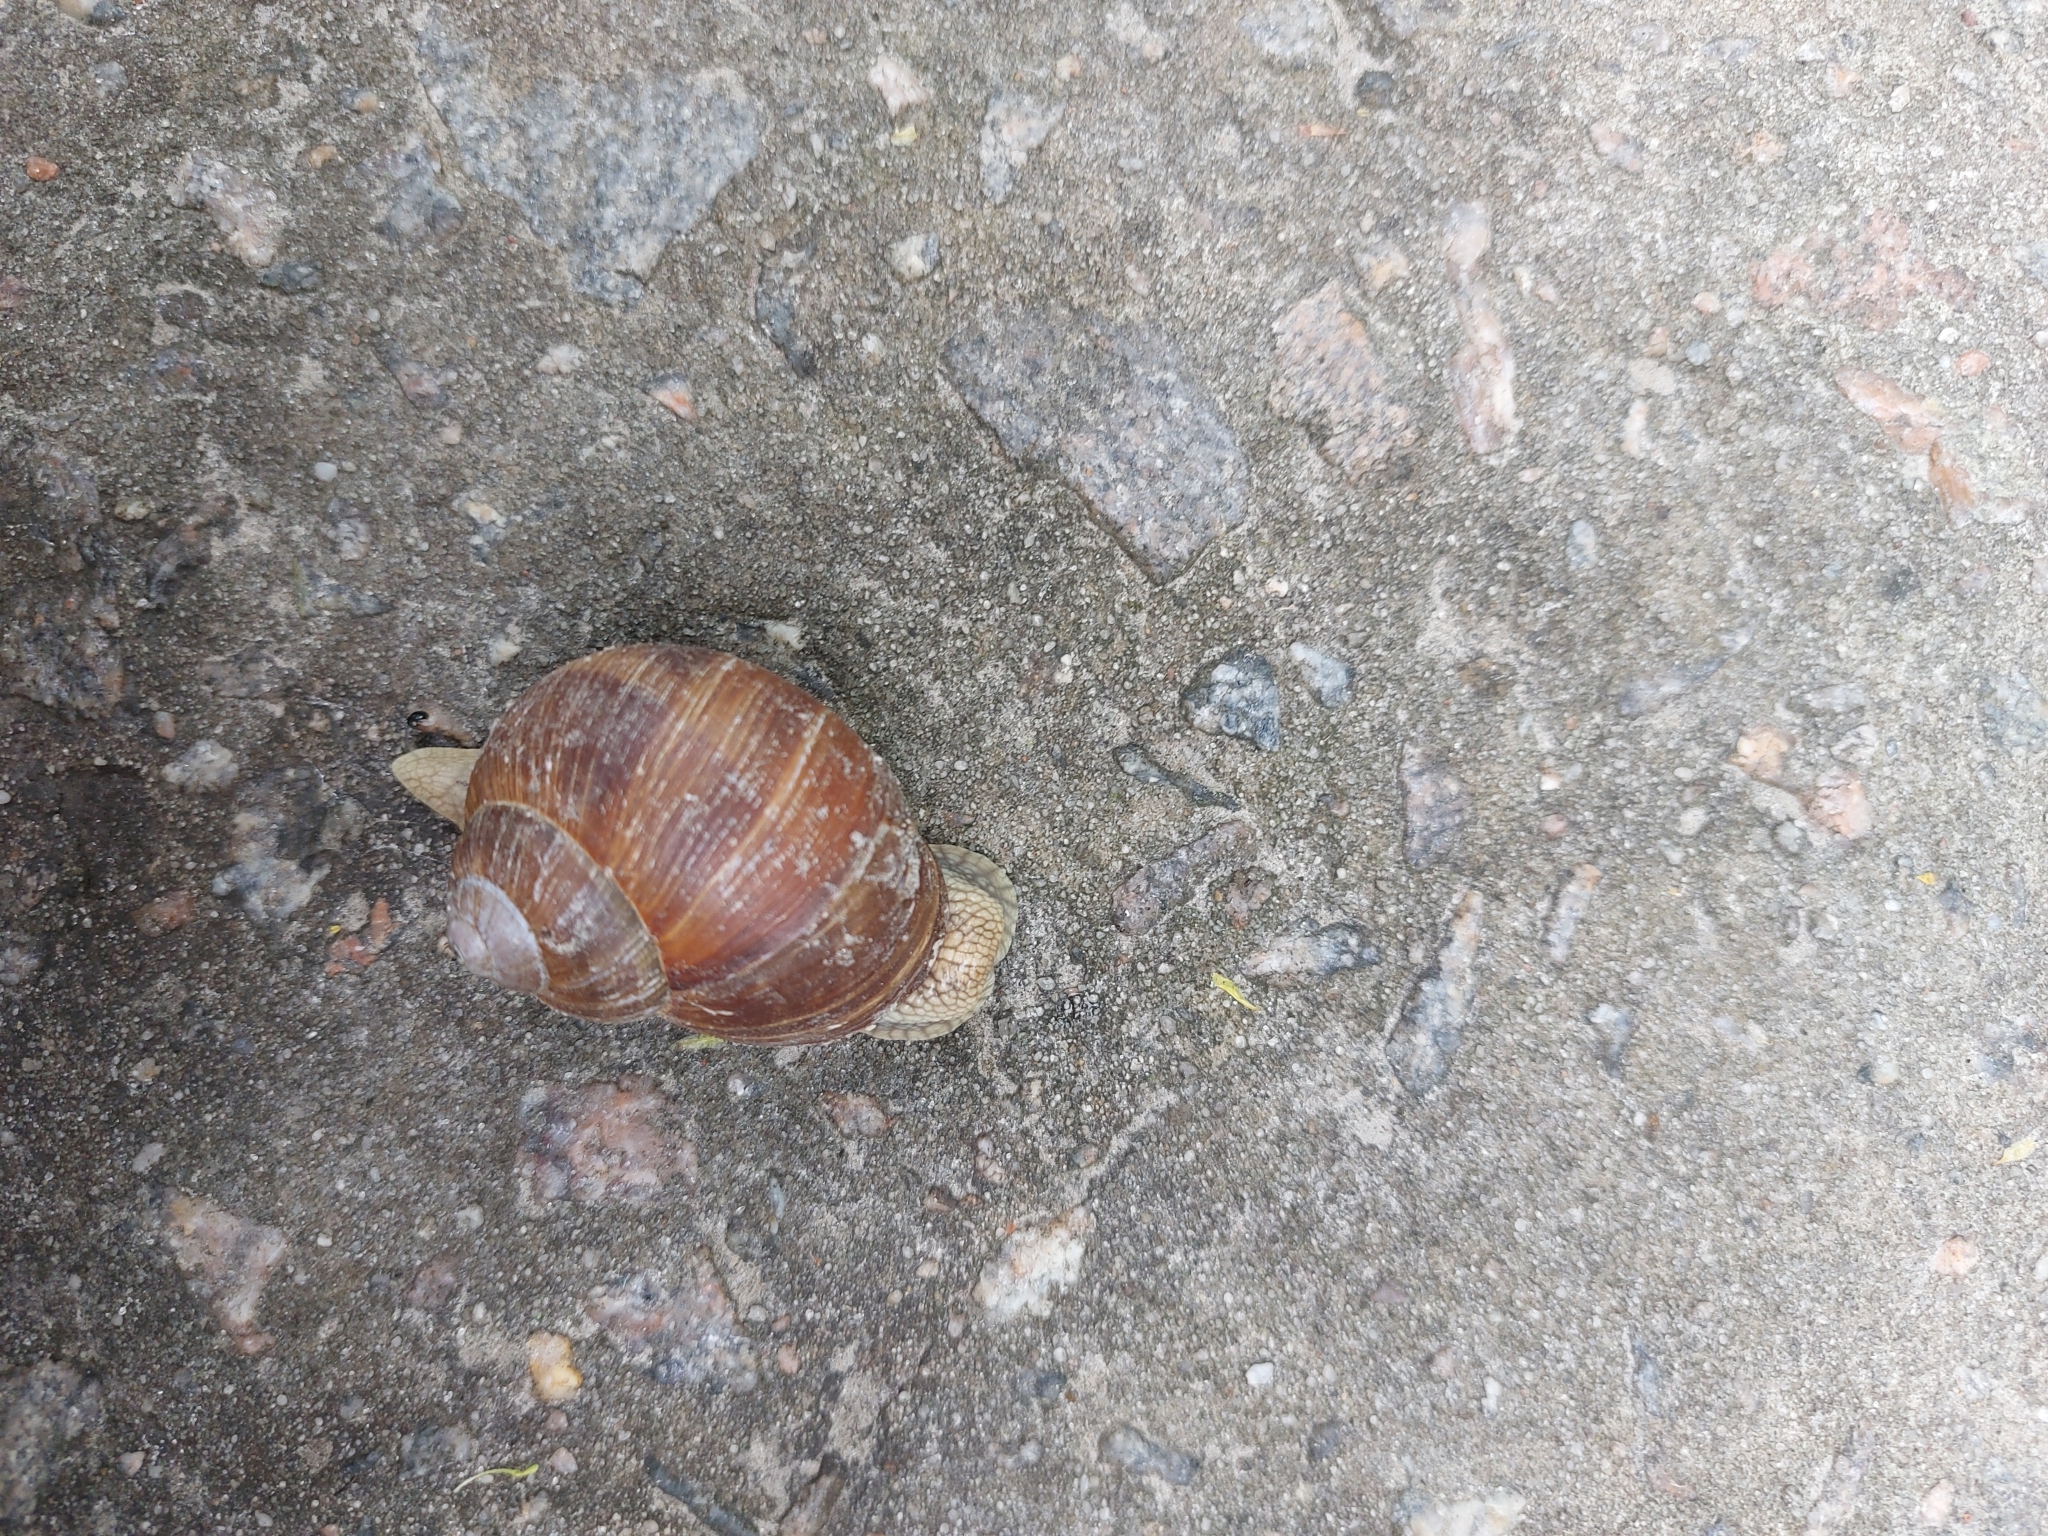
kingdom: Animalia
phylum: Mollusca
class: Gastropoda
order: Stylommatophora
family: Helicidae
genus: Helix
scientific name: Helix pomatia
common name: Roman snail
